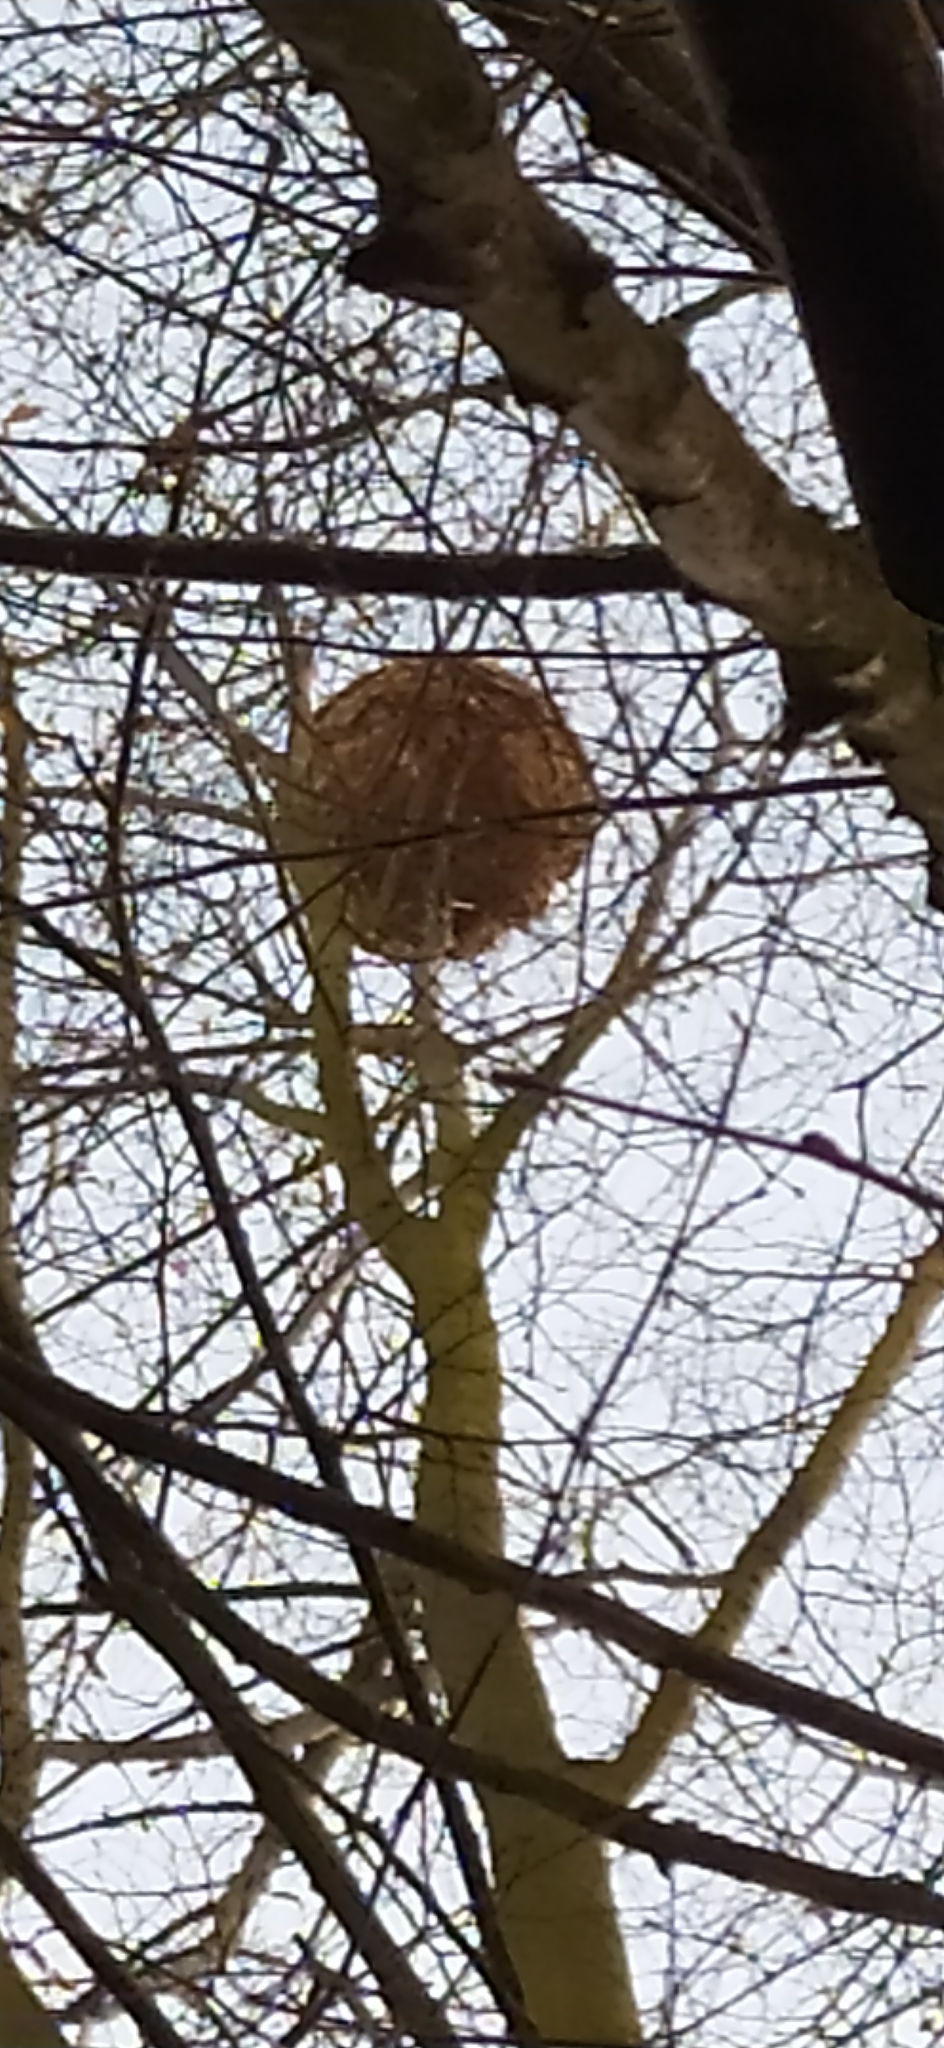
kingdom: Animalia
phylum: Arthropoda
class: Insecta
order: Hymenoptera
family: Vespidae
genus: Vespa
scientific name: Vespa velutina
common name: Asian hornet
